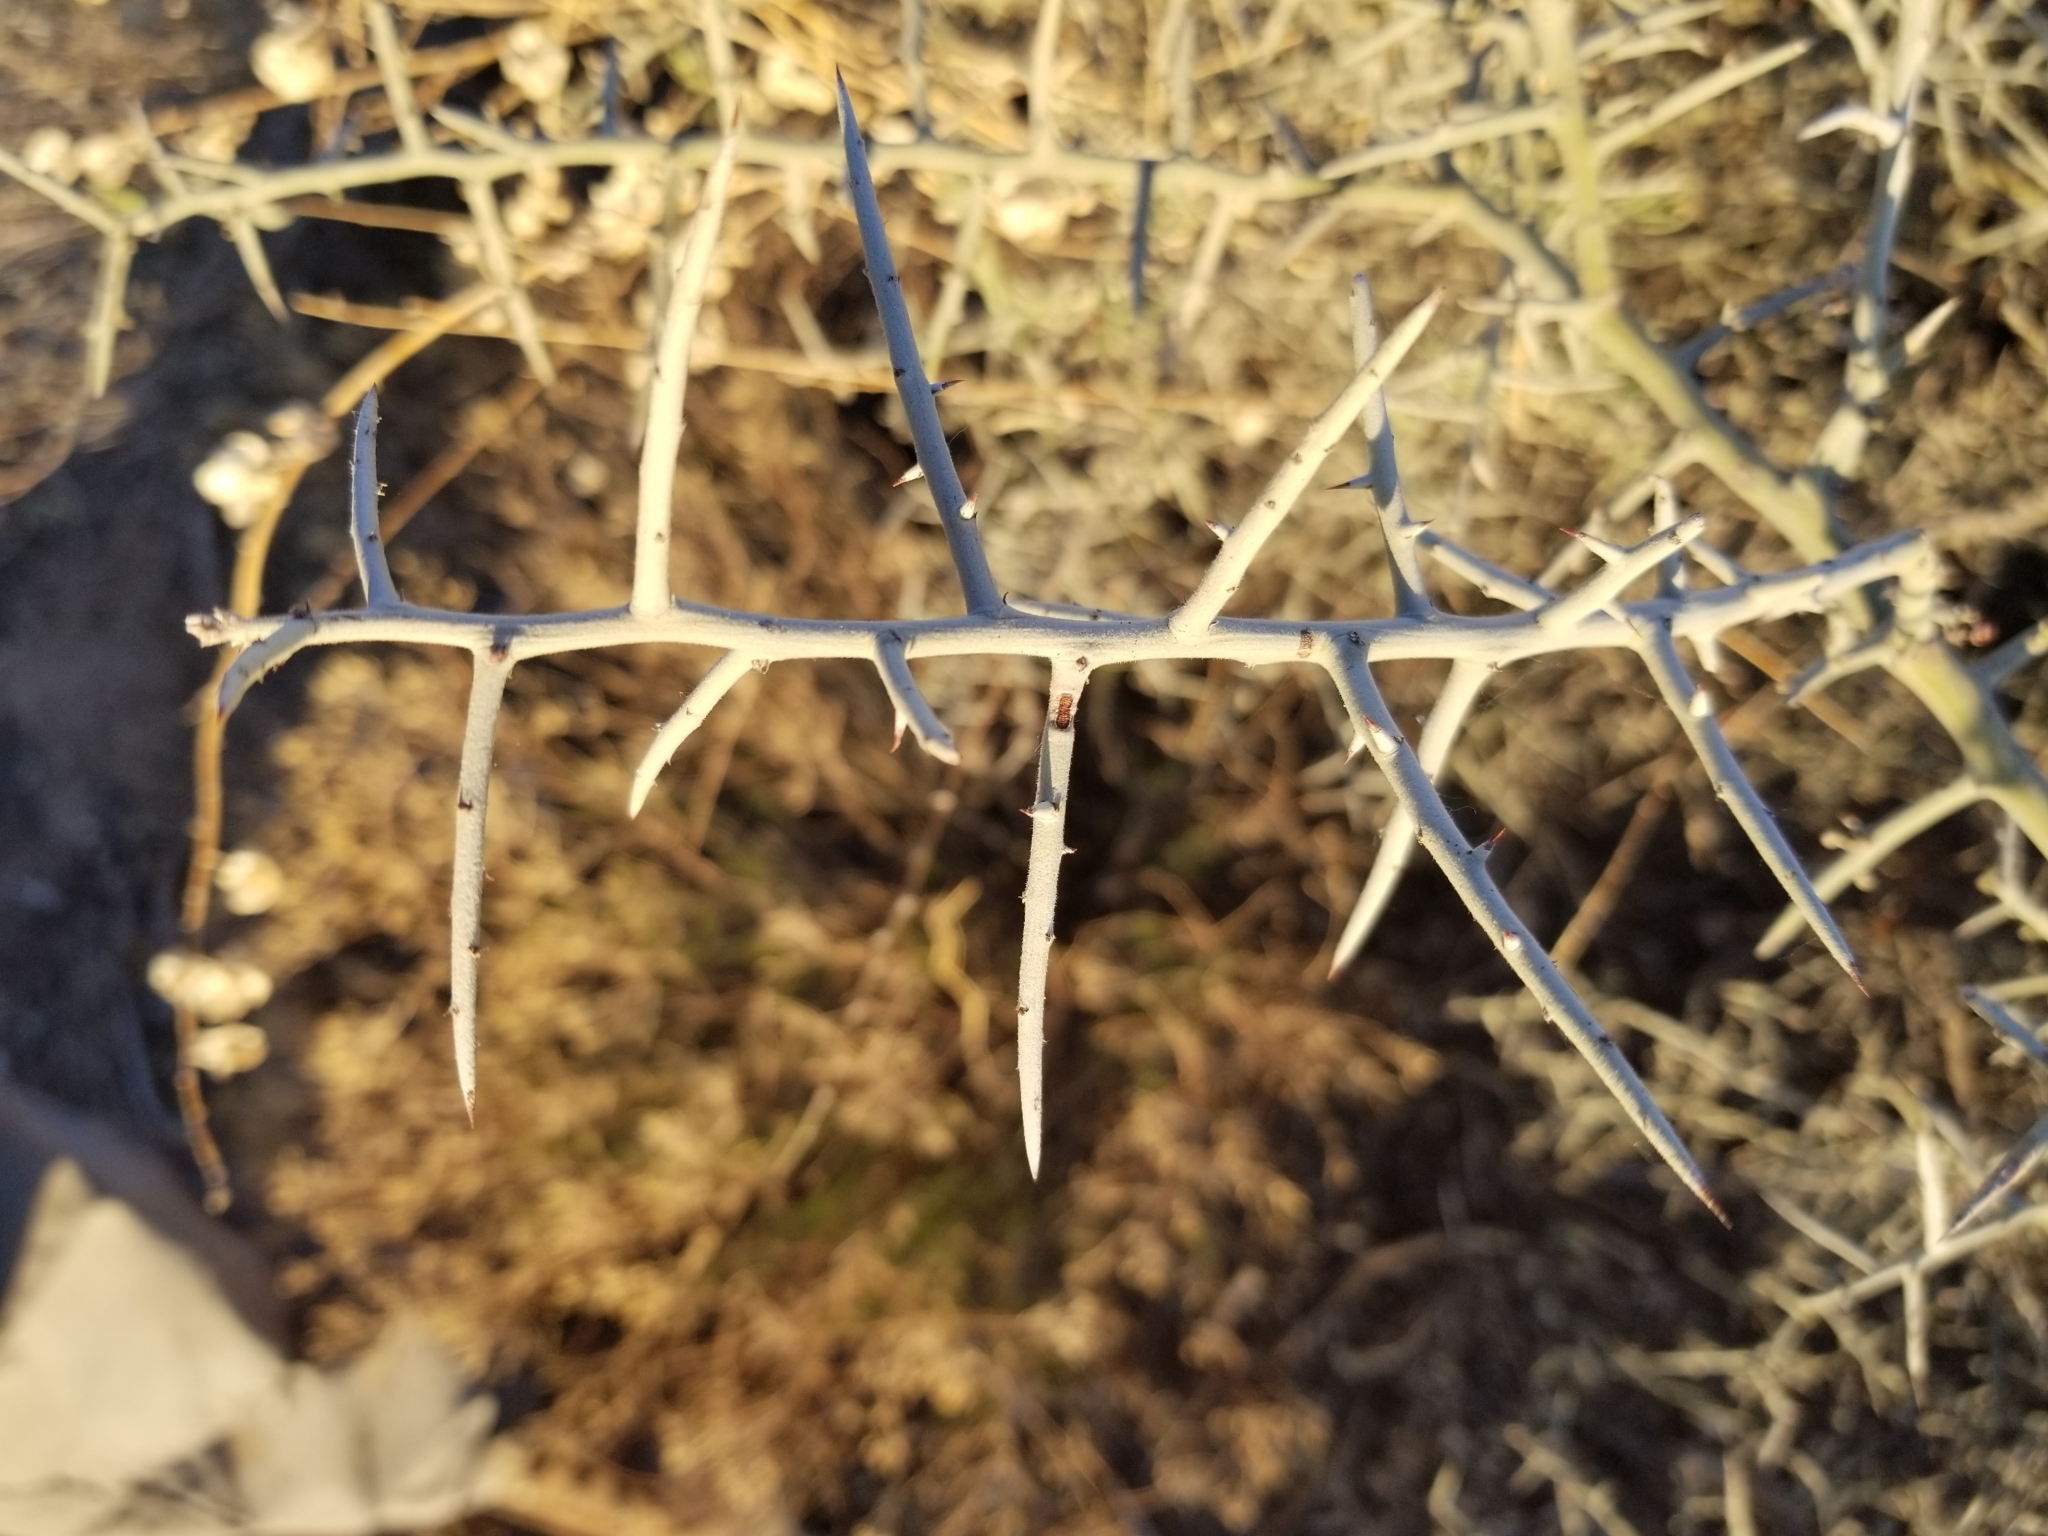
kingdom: Plantae
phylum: Tracheophyta
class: Magnoliopsida
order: Rosales
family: Rhamnaceae
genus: Sarcomphalus
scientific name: Sarcomphalus obtusifolius
